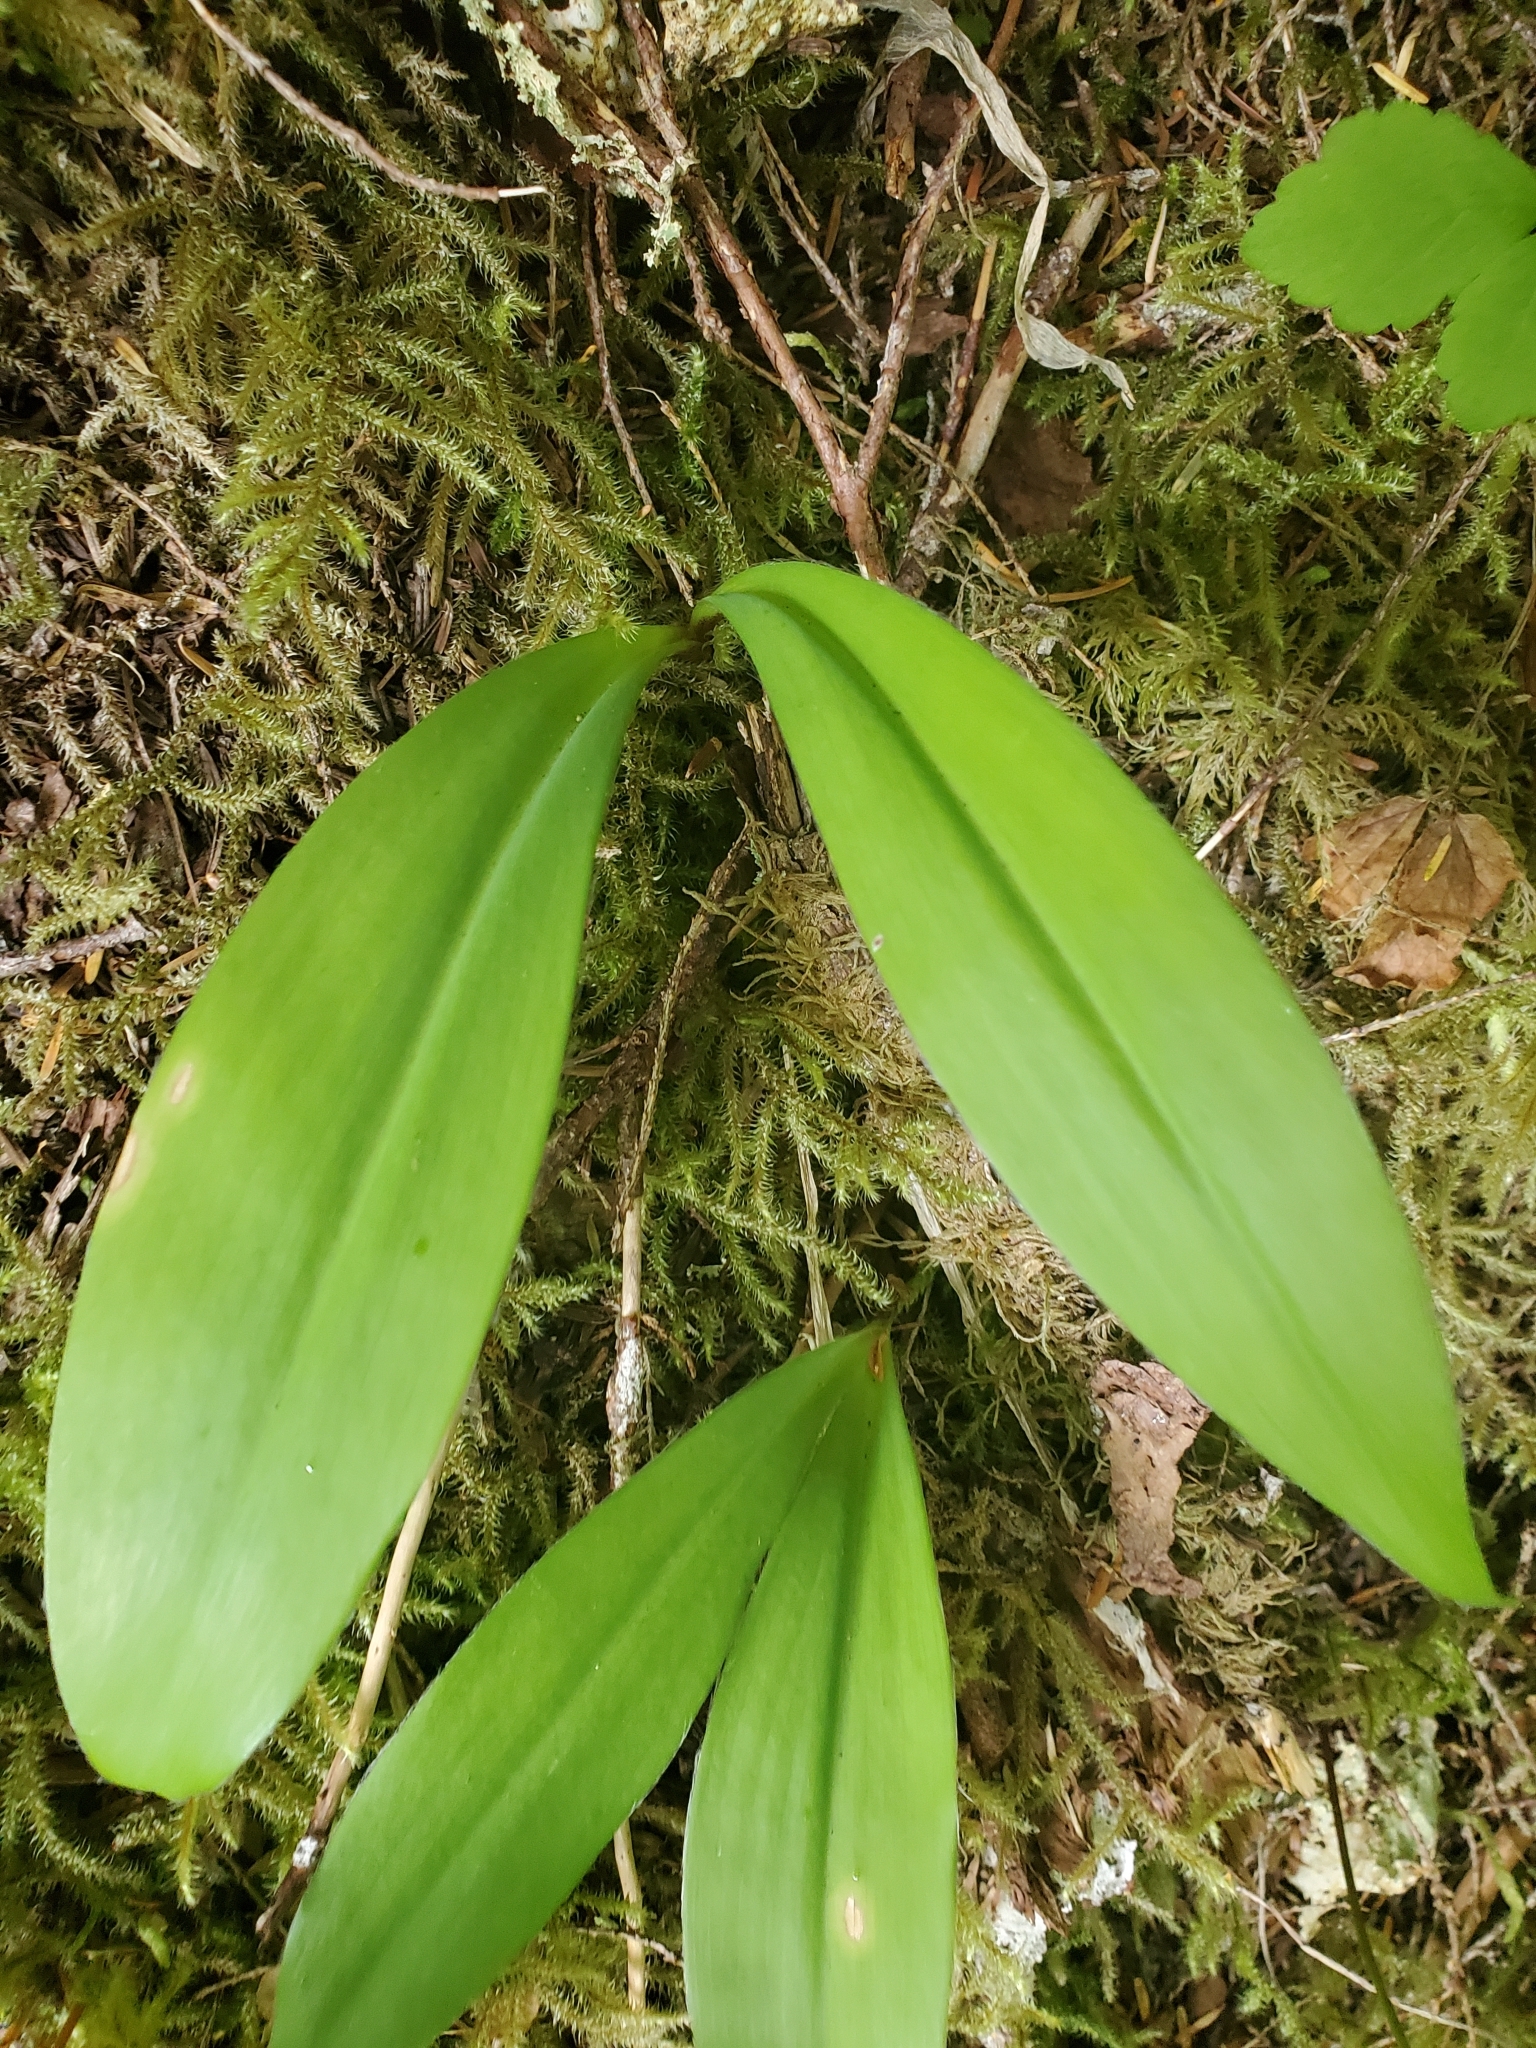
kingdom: Plantae
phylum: Tracheophyta
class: Liliopsida
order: Liliales
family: Liliaceae
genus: Clintonia
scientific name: Clintonia uniflora
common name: Queen's cup
